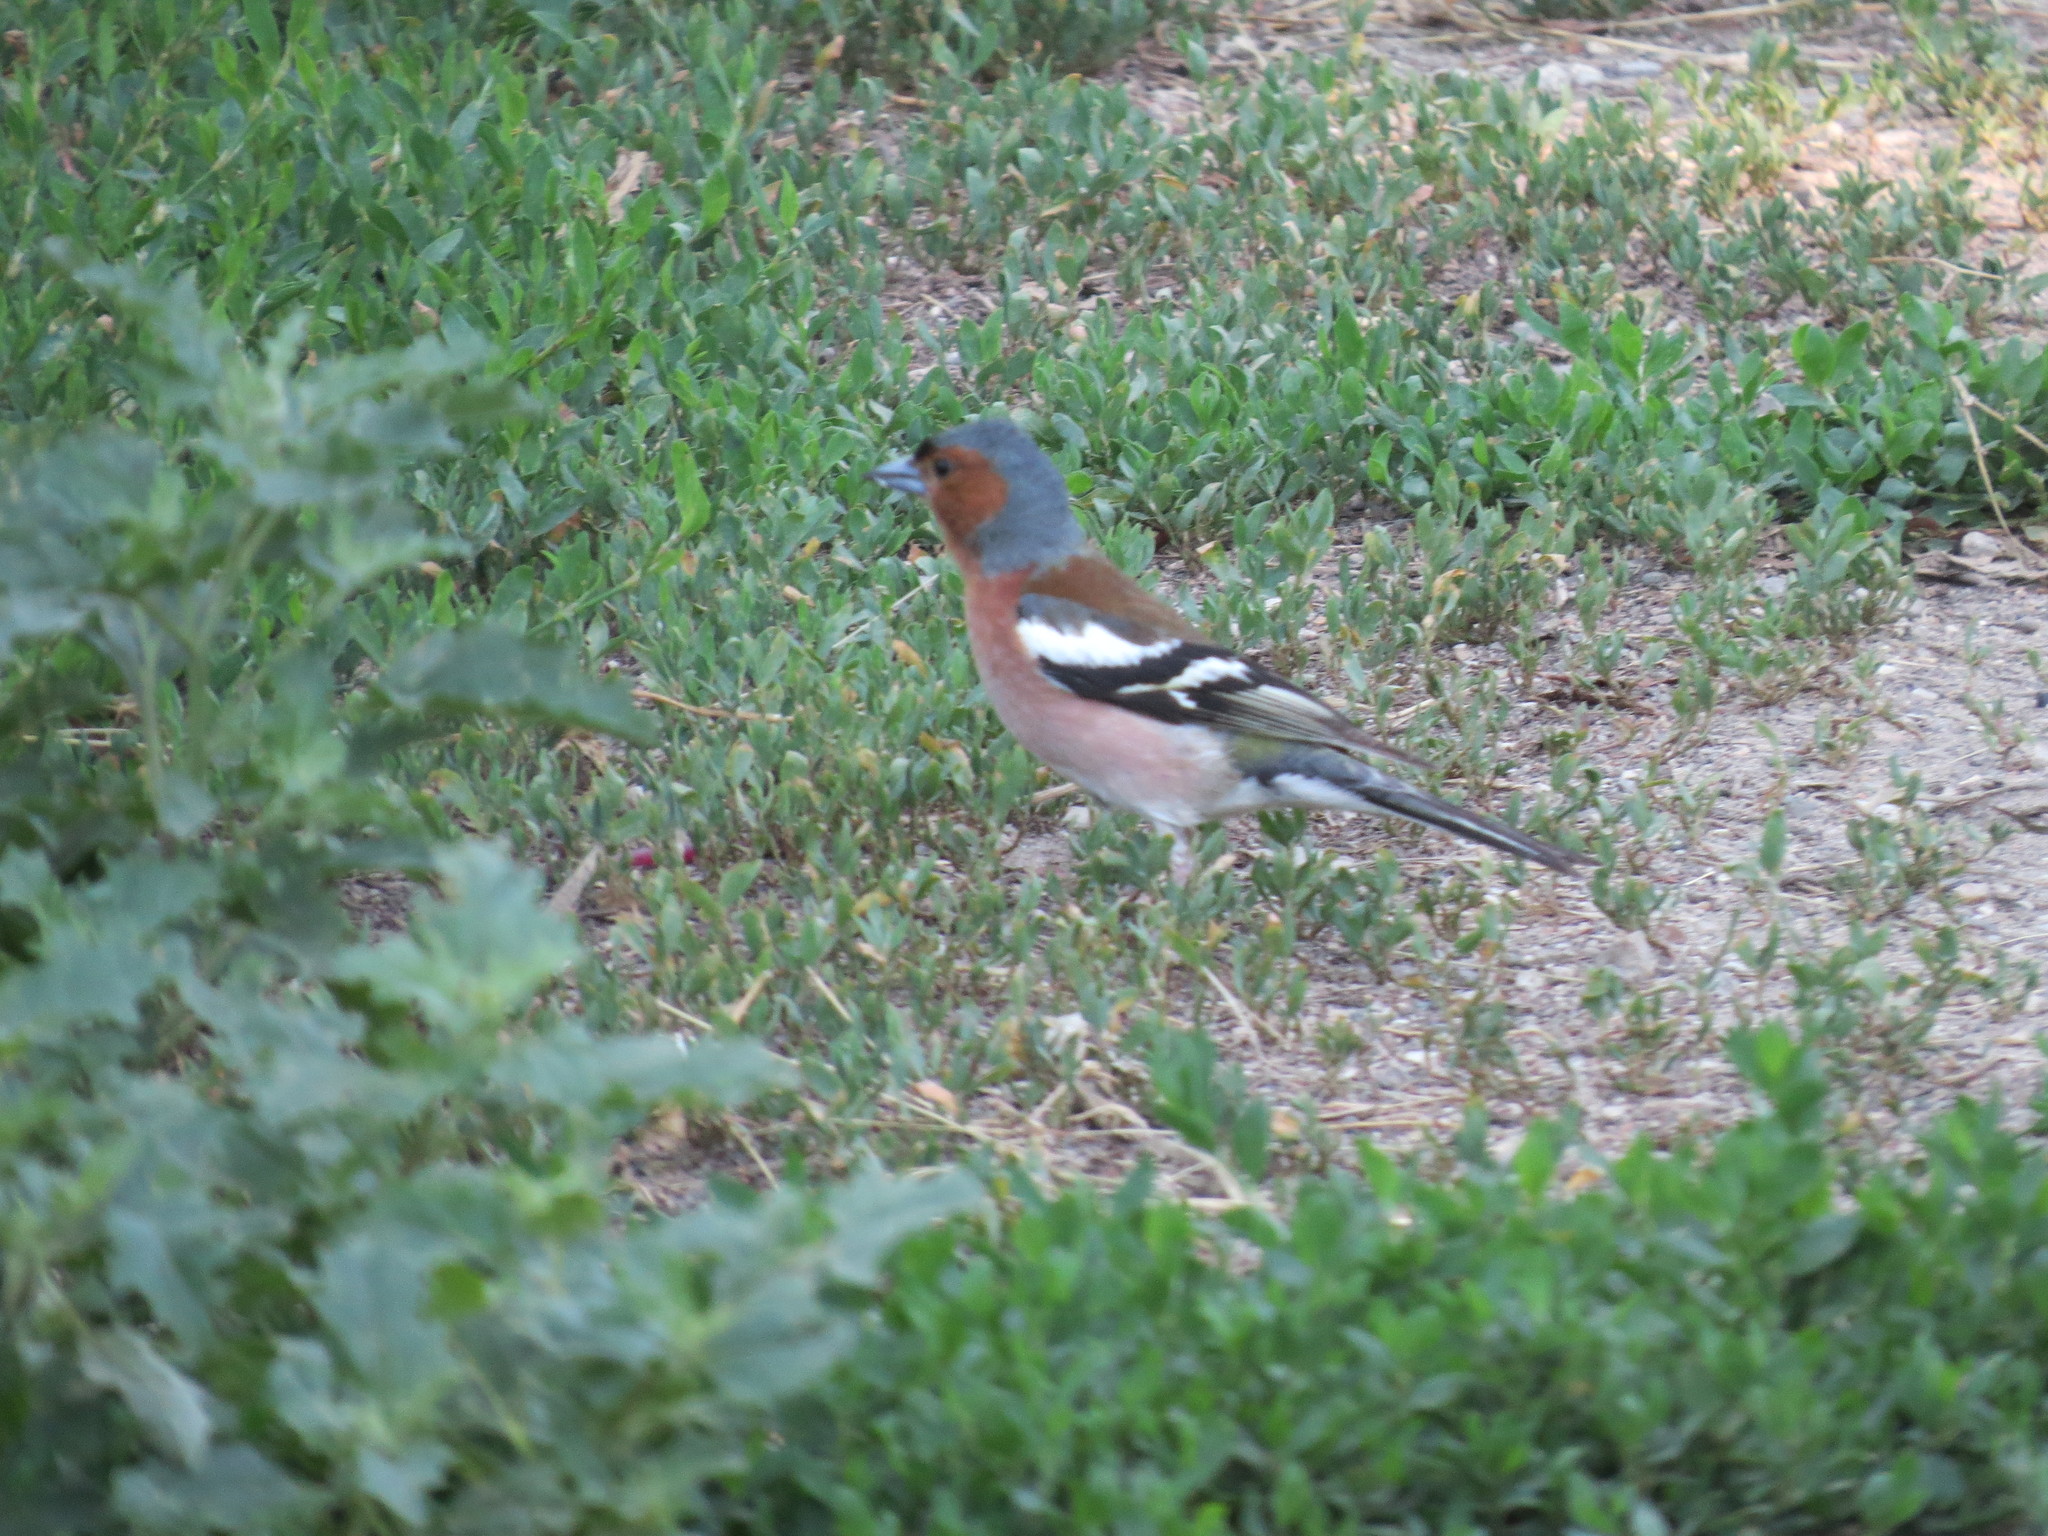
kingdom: Animalia
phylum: Chordata
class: Aves
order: Passeriformes
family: Fringillidae
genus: Fringilla
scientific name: Fringilla coelebs
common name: Common chaffinch
